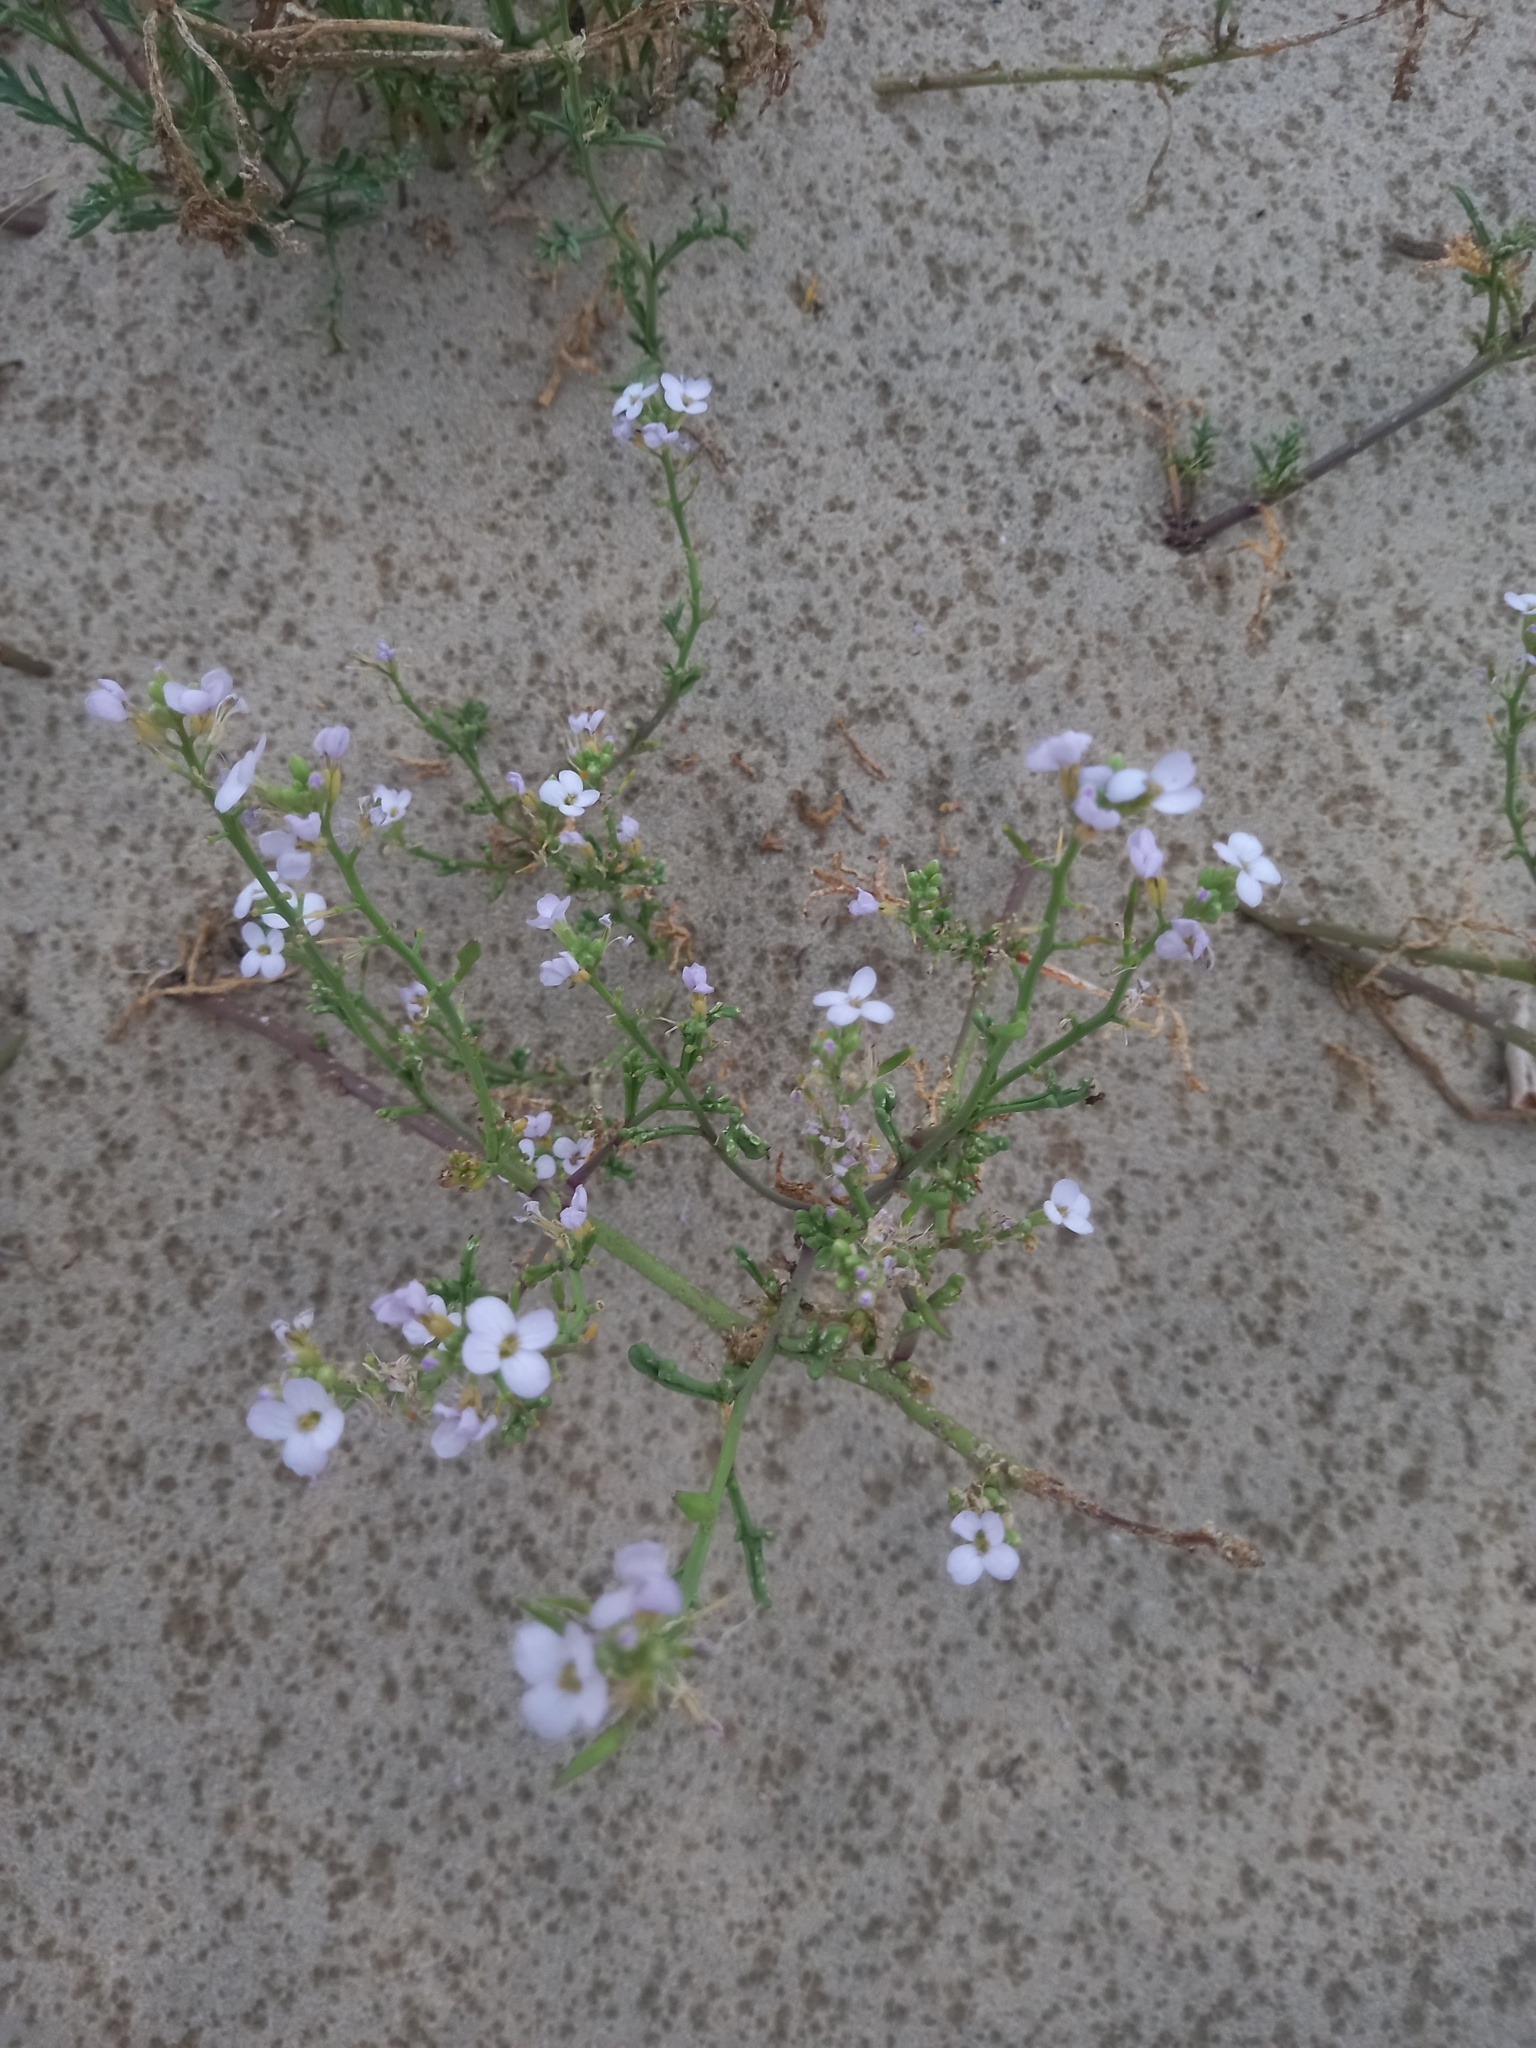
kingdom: Plantae
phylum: Tracheophyta
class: Magnoliopsida
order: Brassicales
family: Brassicaceae
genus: Cakile
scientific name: Cakile maritima
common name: Sea rocket
